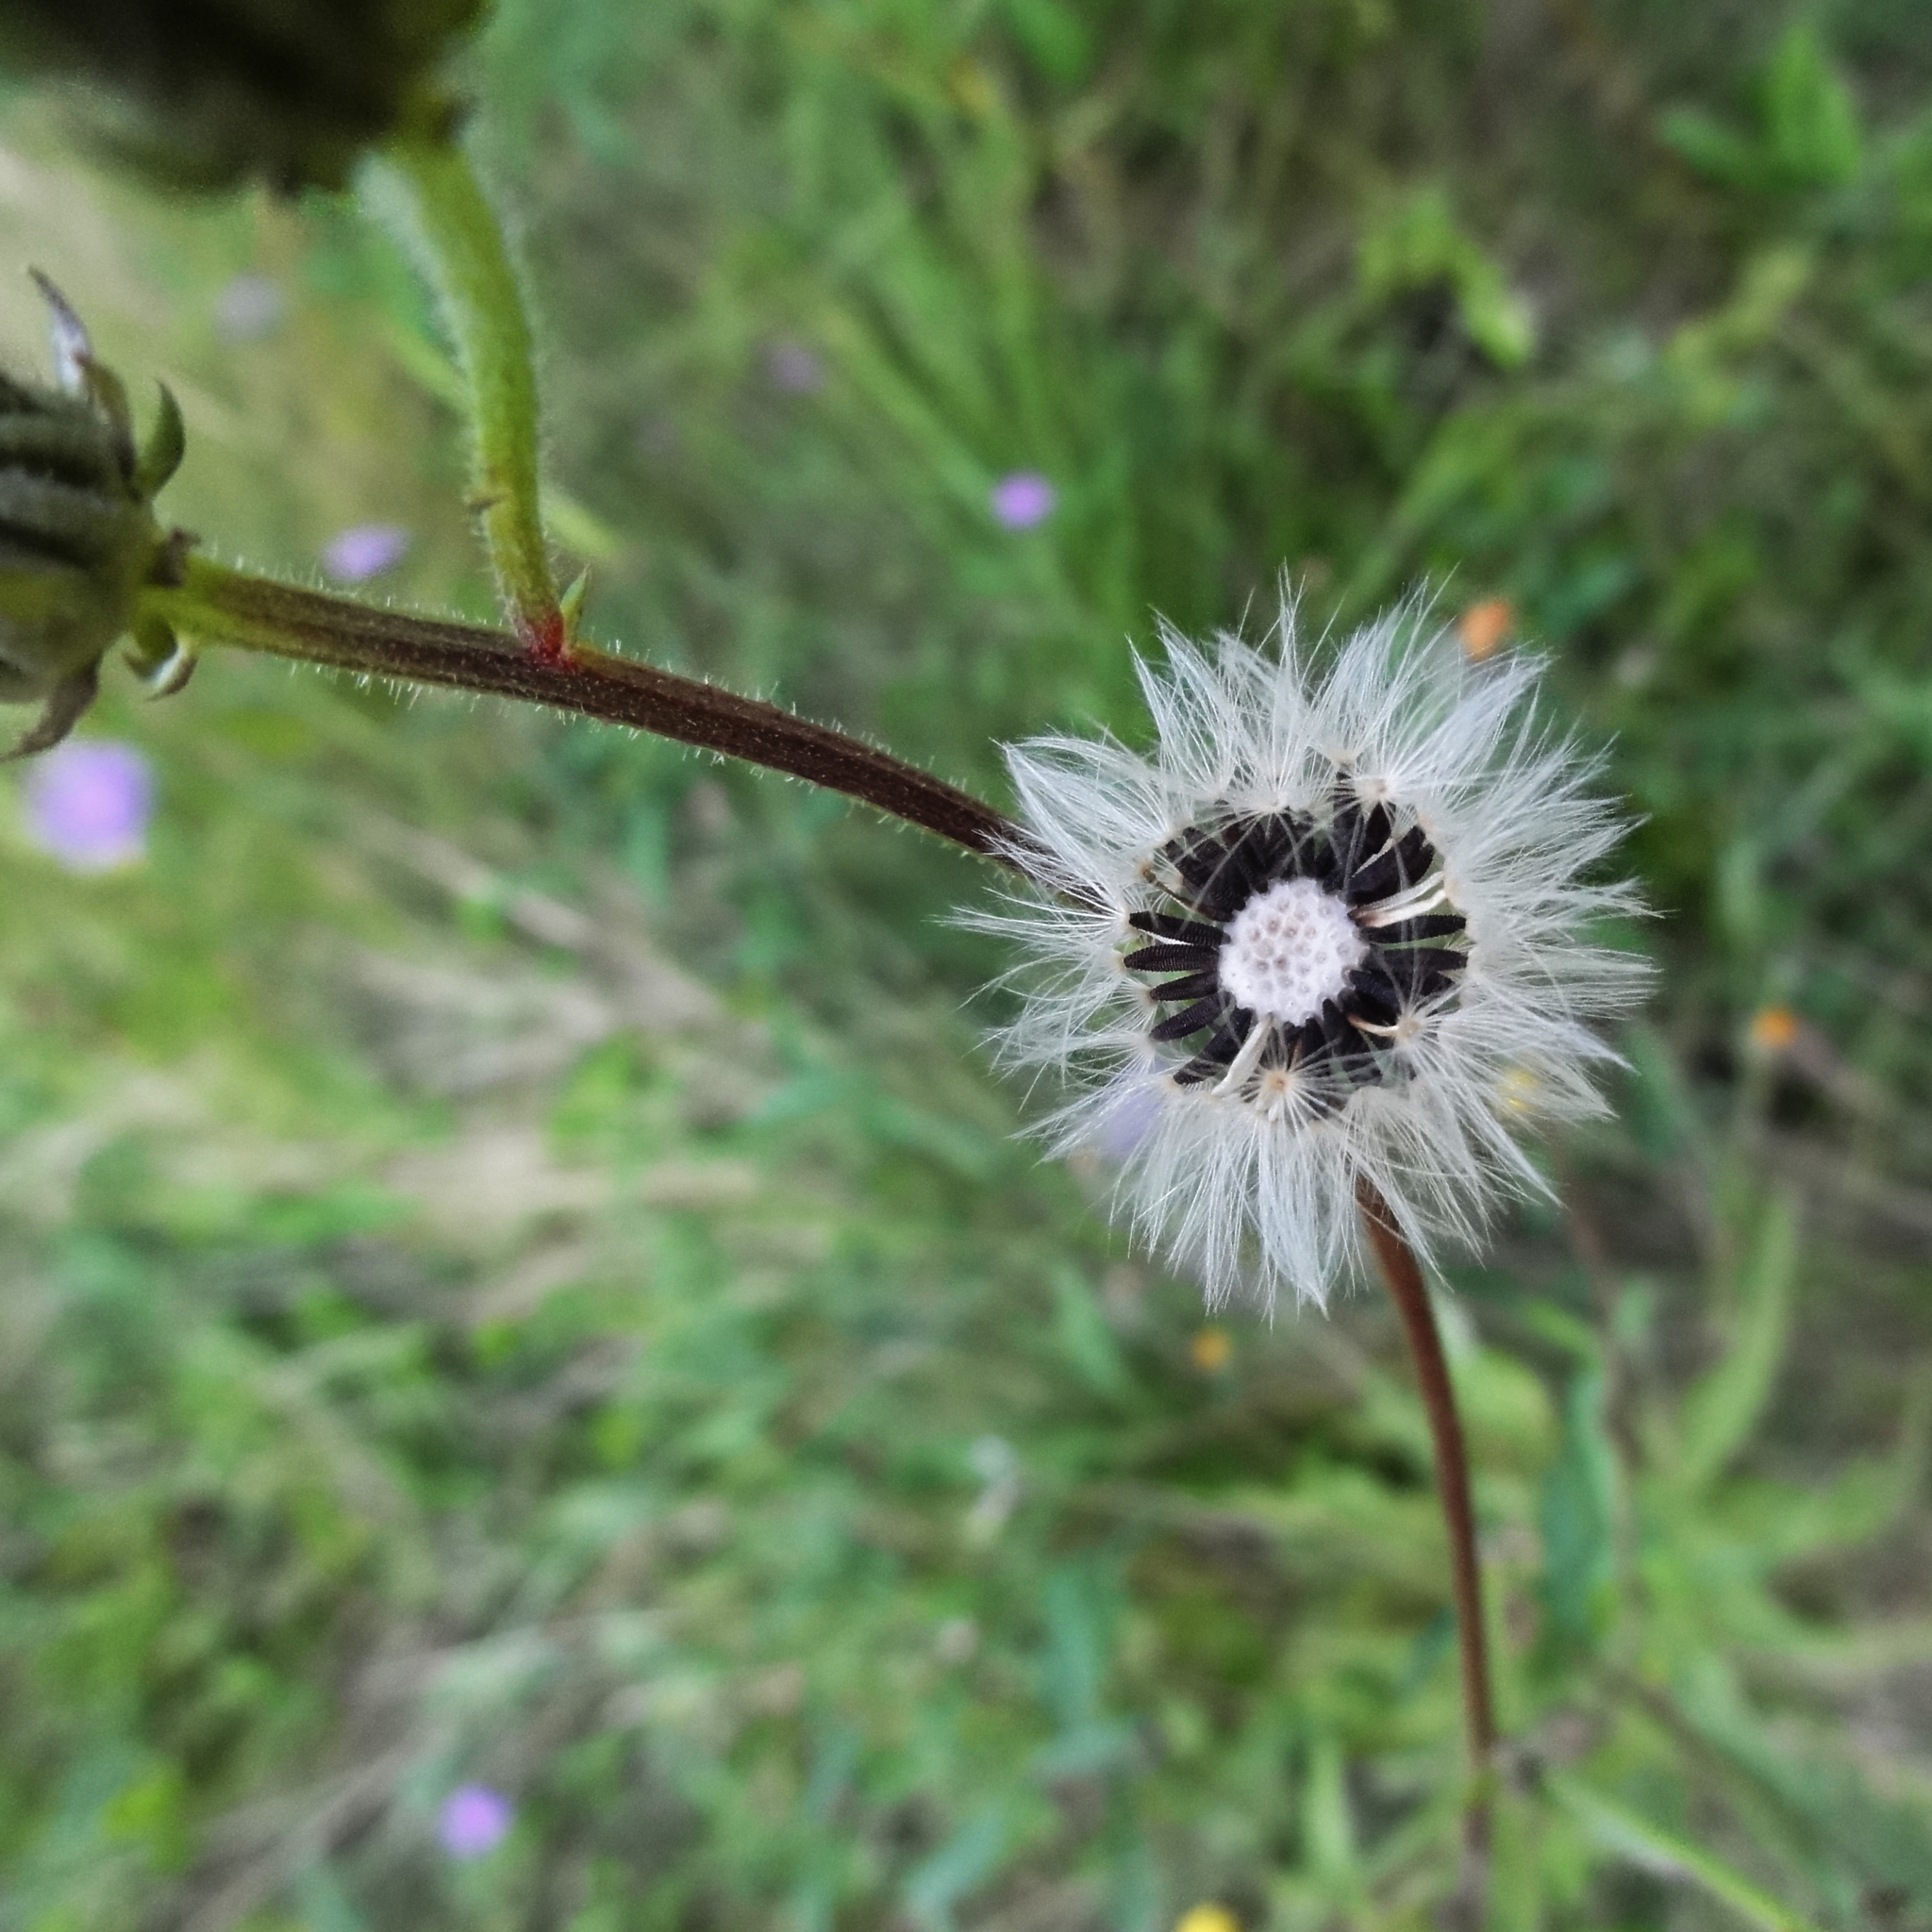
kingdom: Plantae
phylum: Tracheophyta
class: Magnoliopsida
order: Asterales
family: Asteraceae
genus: Picris
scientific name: Picris hieracioides
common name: Hawkweed oxtongue
